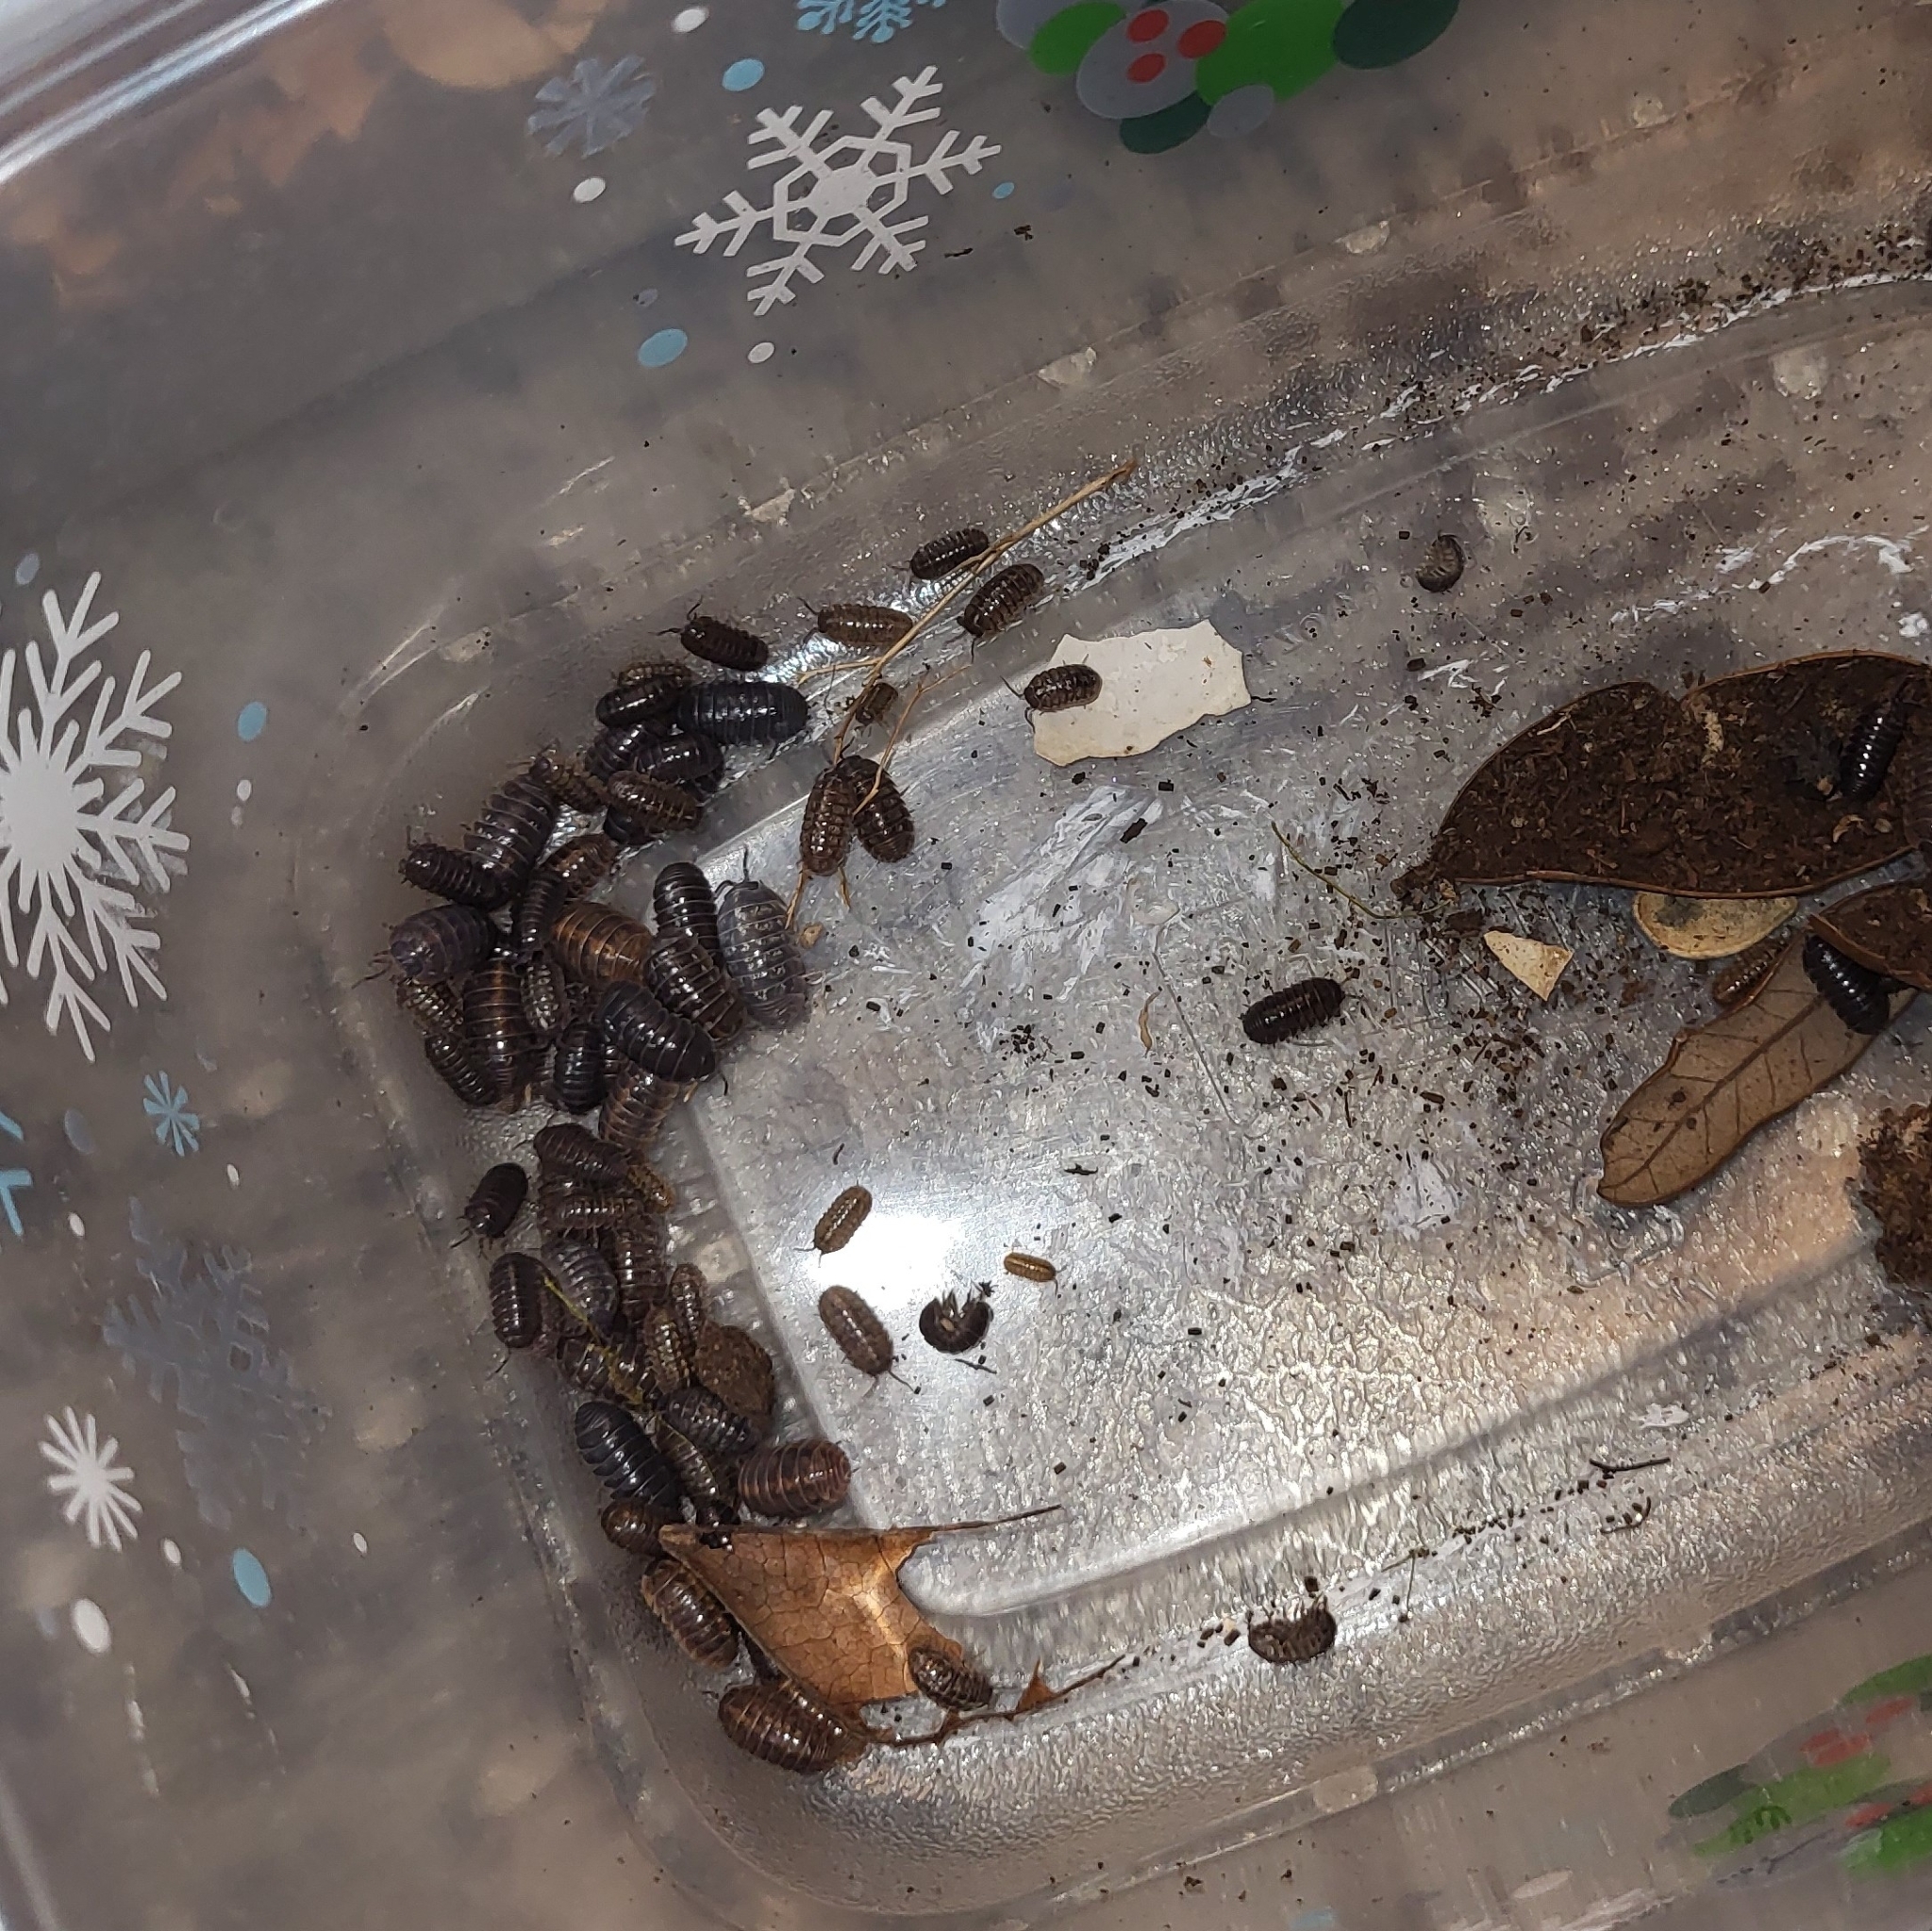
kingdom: Animalia
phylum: Arthropoda
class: Malacostraca
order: Isopoda
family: Armadillidiidae
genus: Armadillidium
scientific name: Armadillidium vulgare
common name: Common pill woodlouse
